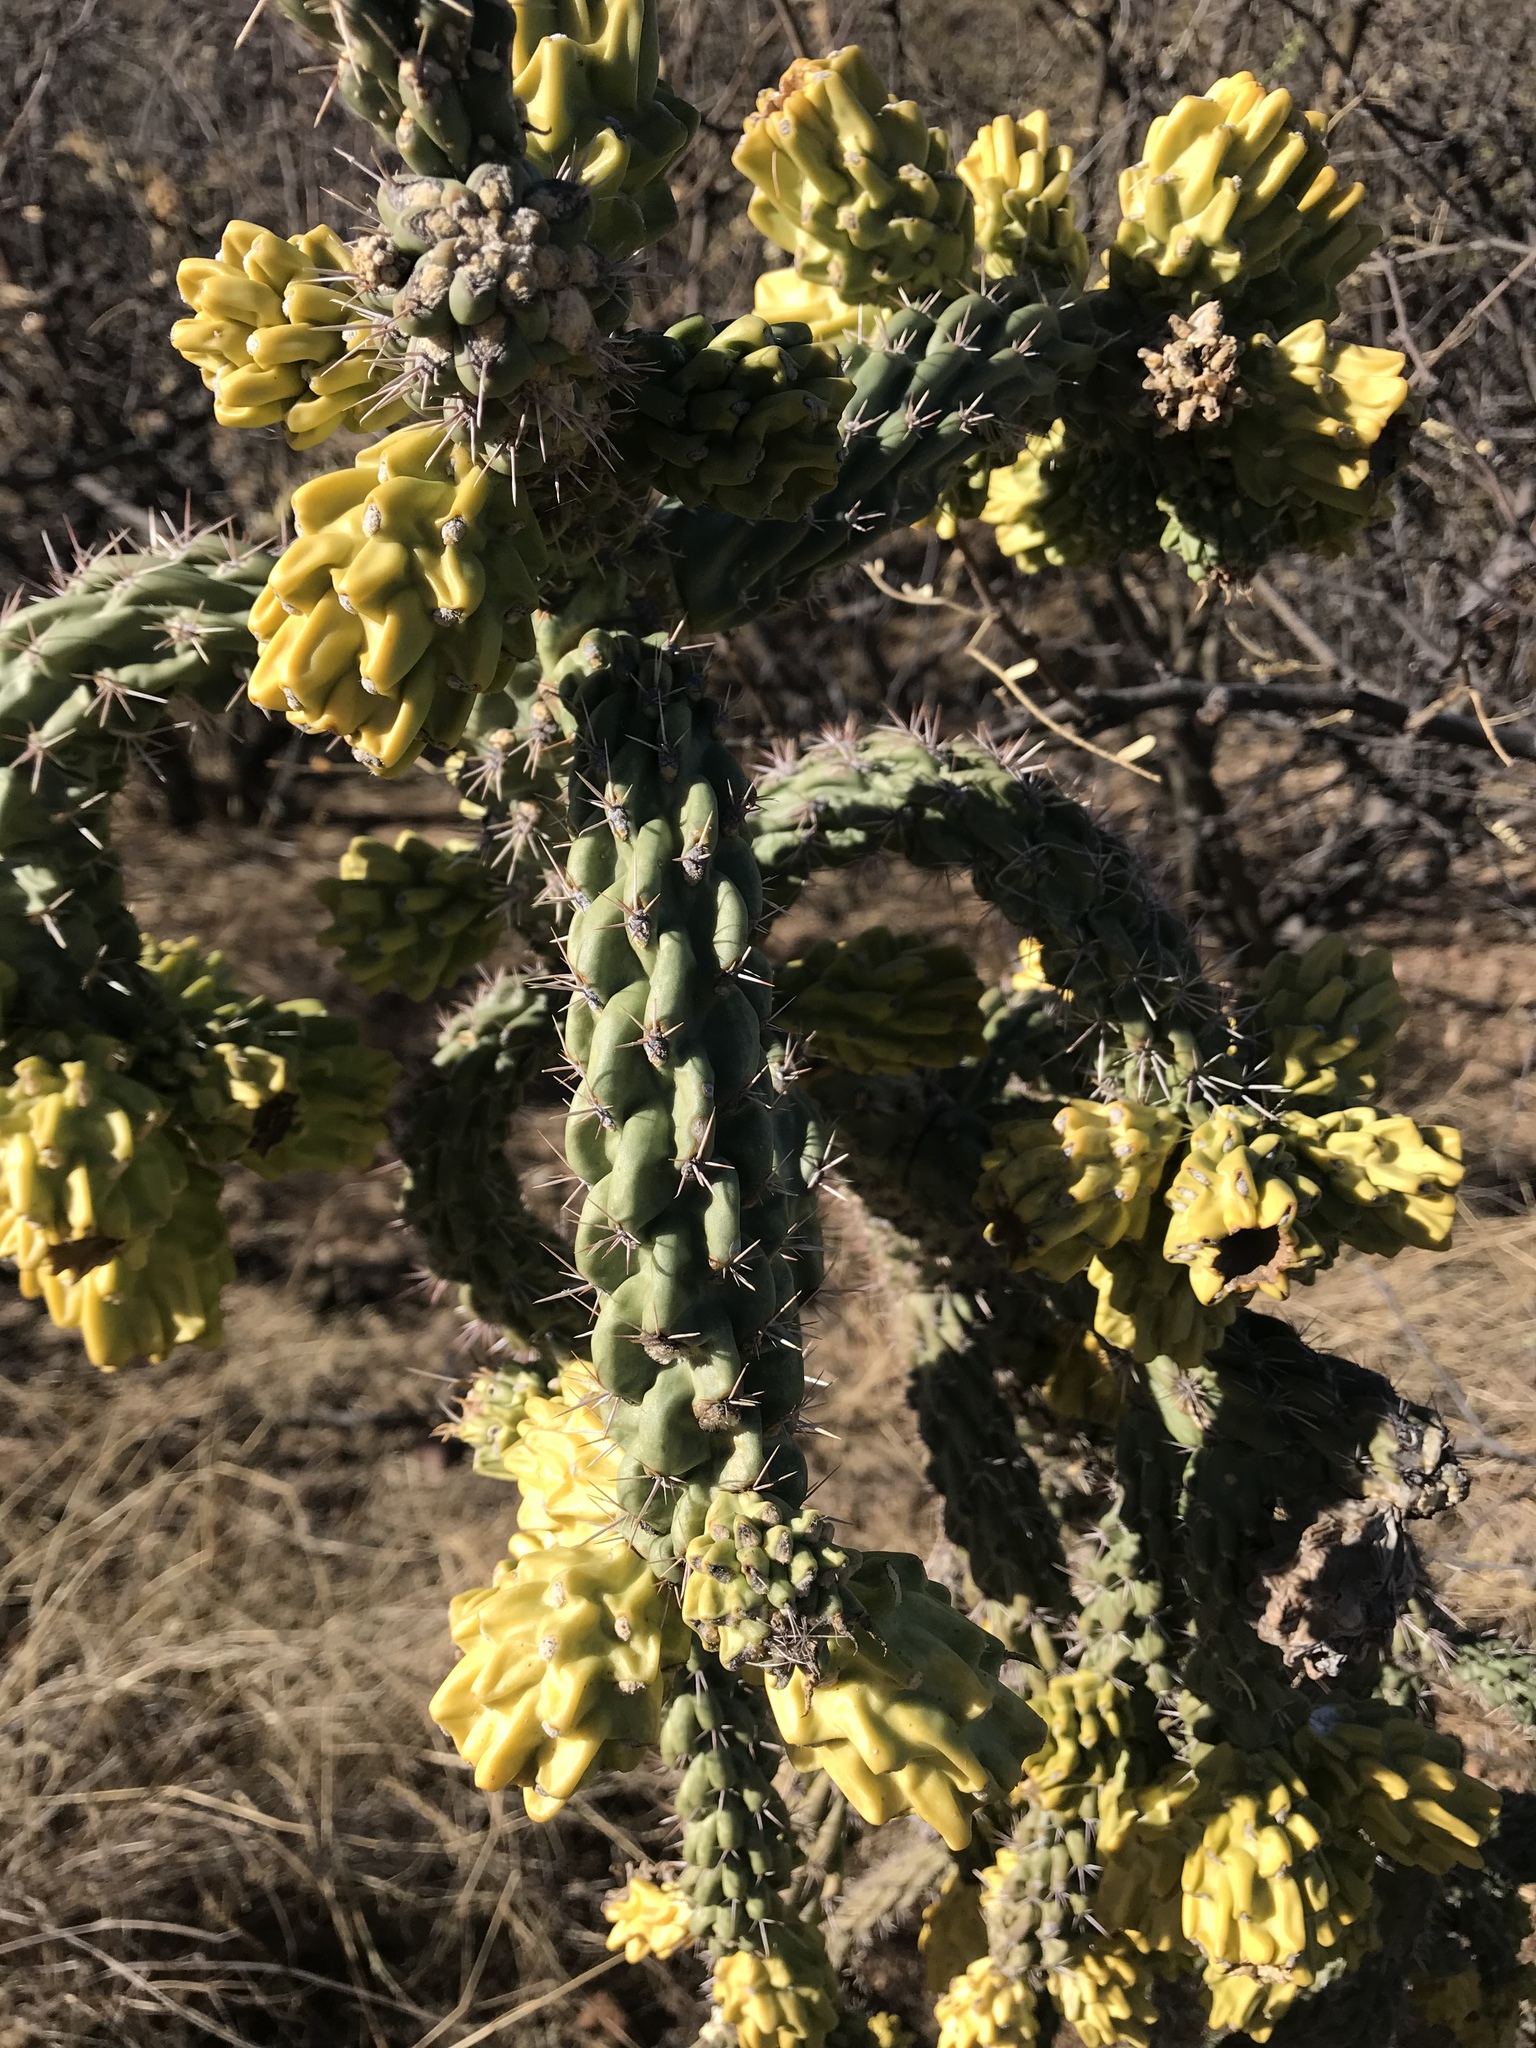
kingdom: Plantae
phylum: Tracheophyta
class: Magnoliopsida
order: Caryophyllales
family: Cactaceae
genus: Cylindropuntia
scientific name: Cylindropuntia imbricata
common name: Candelabrum cactus
